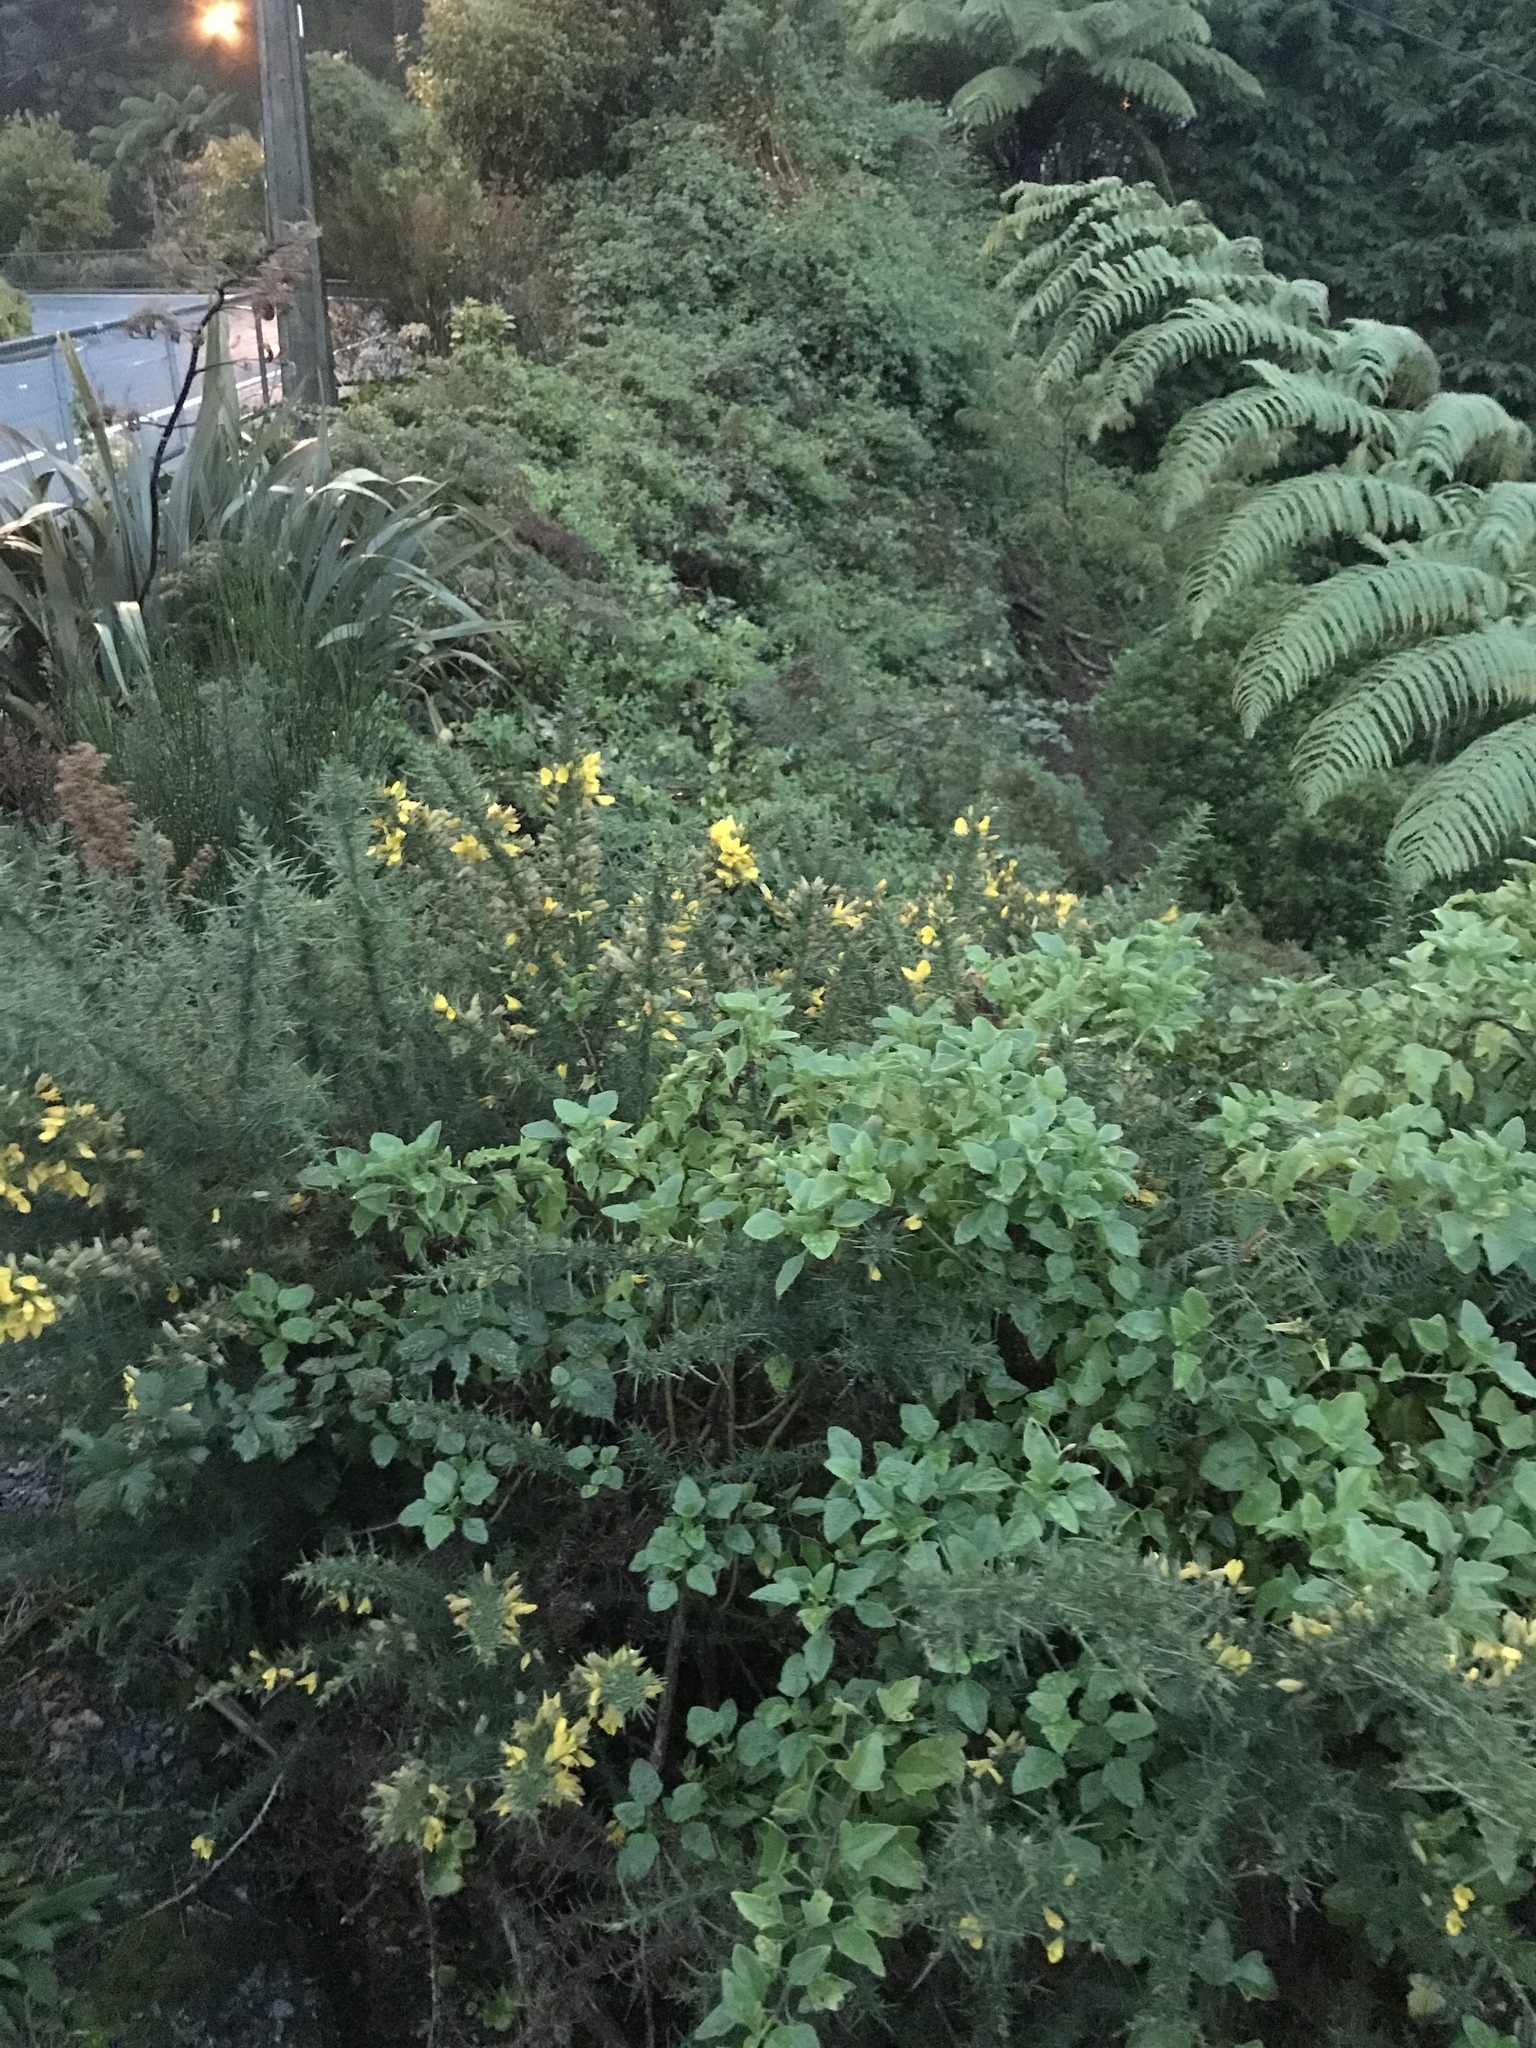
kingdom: Plantae
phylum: Tracheophyta
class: Magnoliopsida
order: Asterales
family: Asteraceae
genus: Senecio
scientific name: Senecio angulatus
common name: Climbing groundsel
